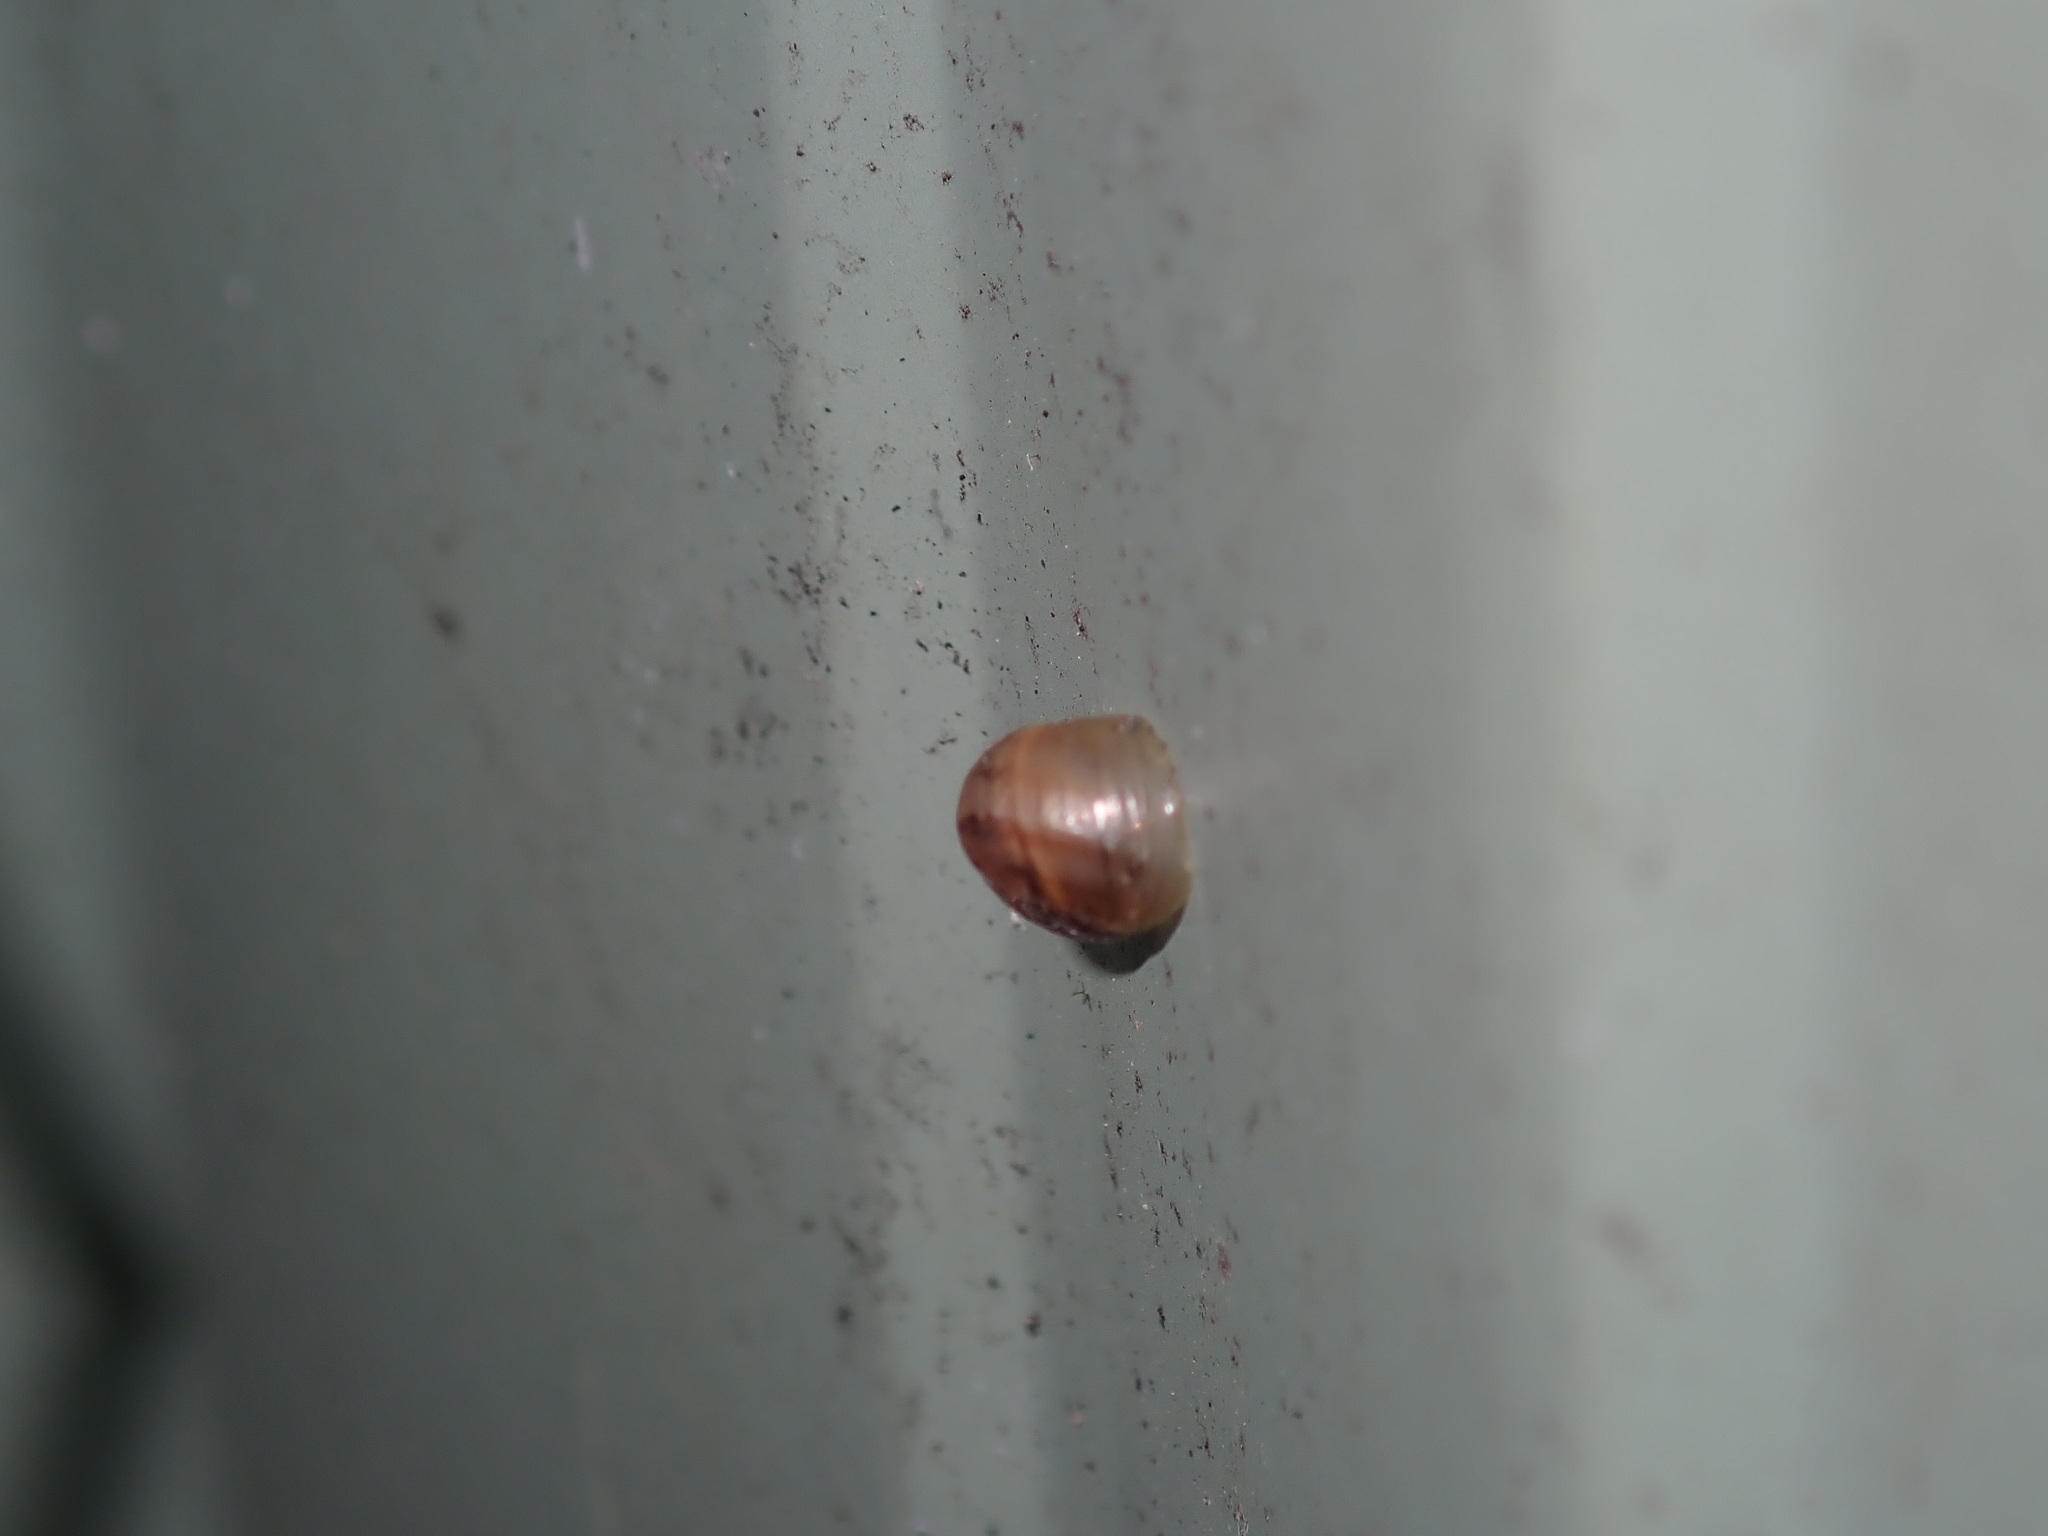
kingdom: Animalia
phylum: Mollusca
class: Gastropoda
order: Stylommatophora
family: Helicidae
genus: Cornu
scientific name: Cornu aspersum
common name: Brown garden snail
